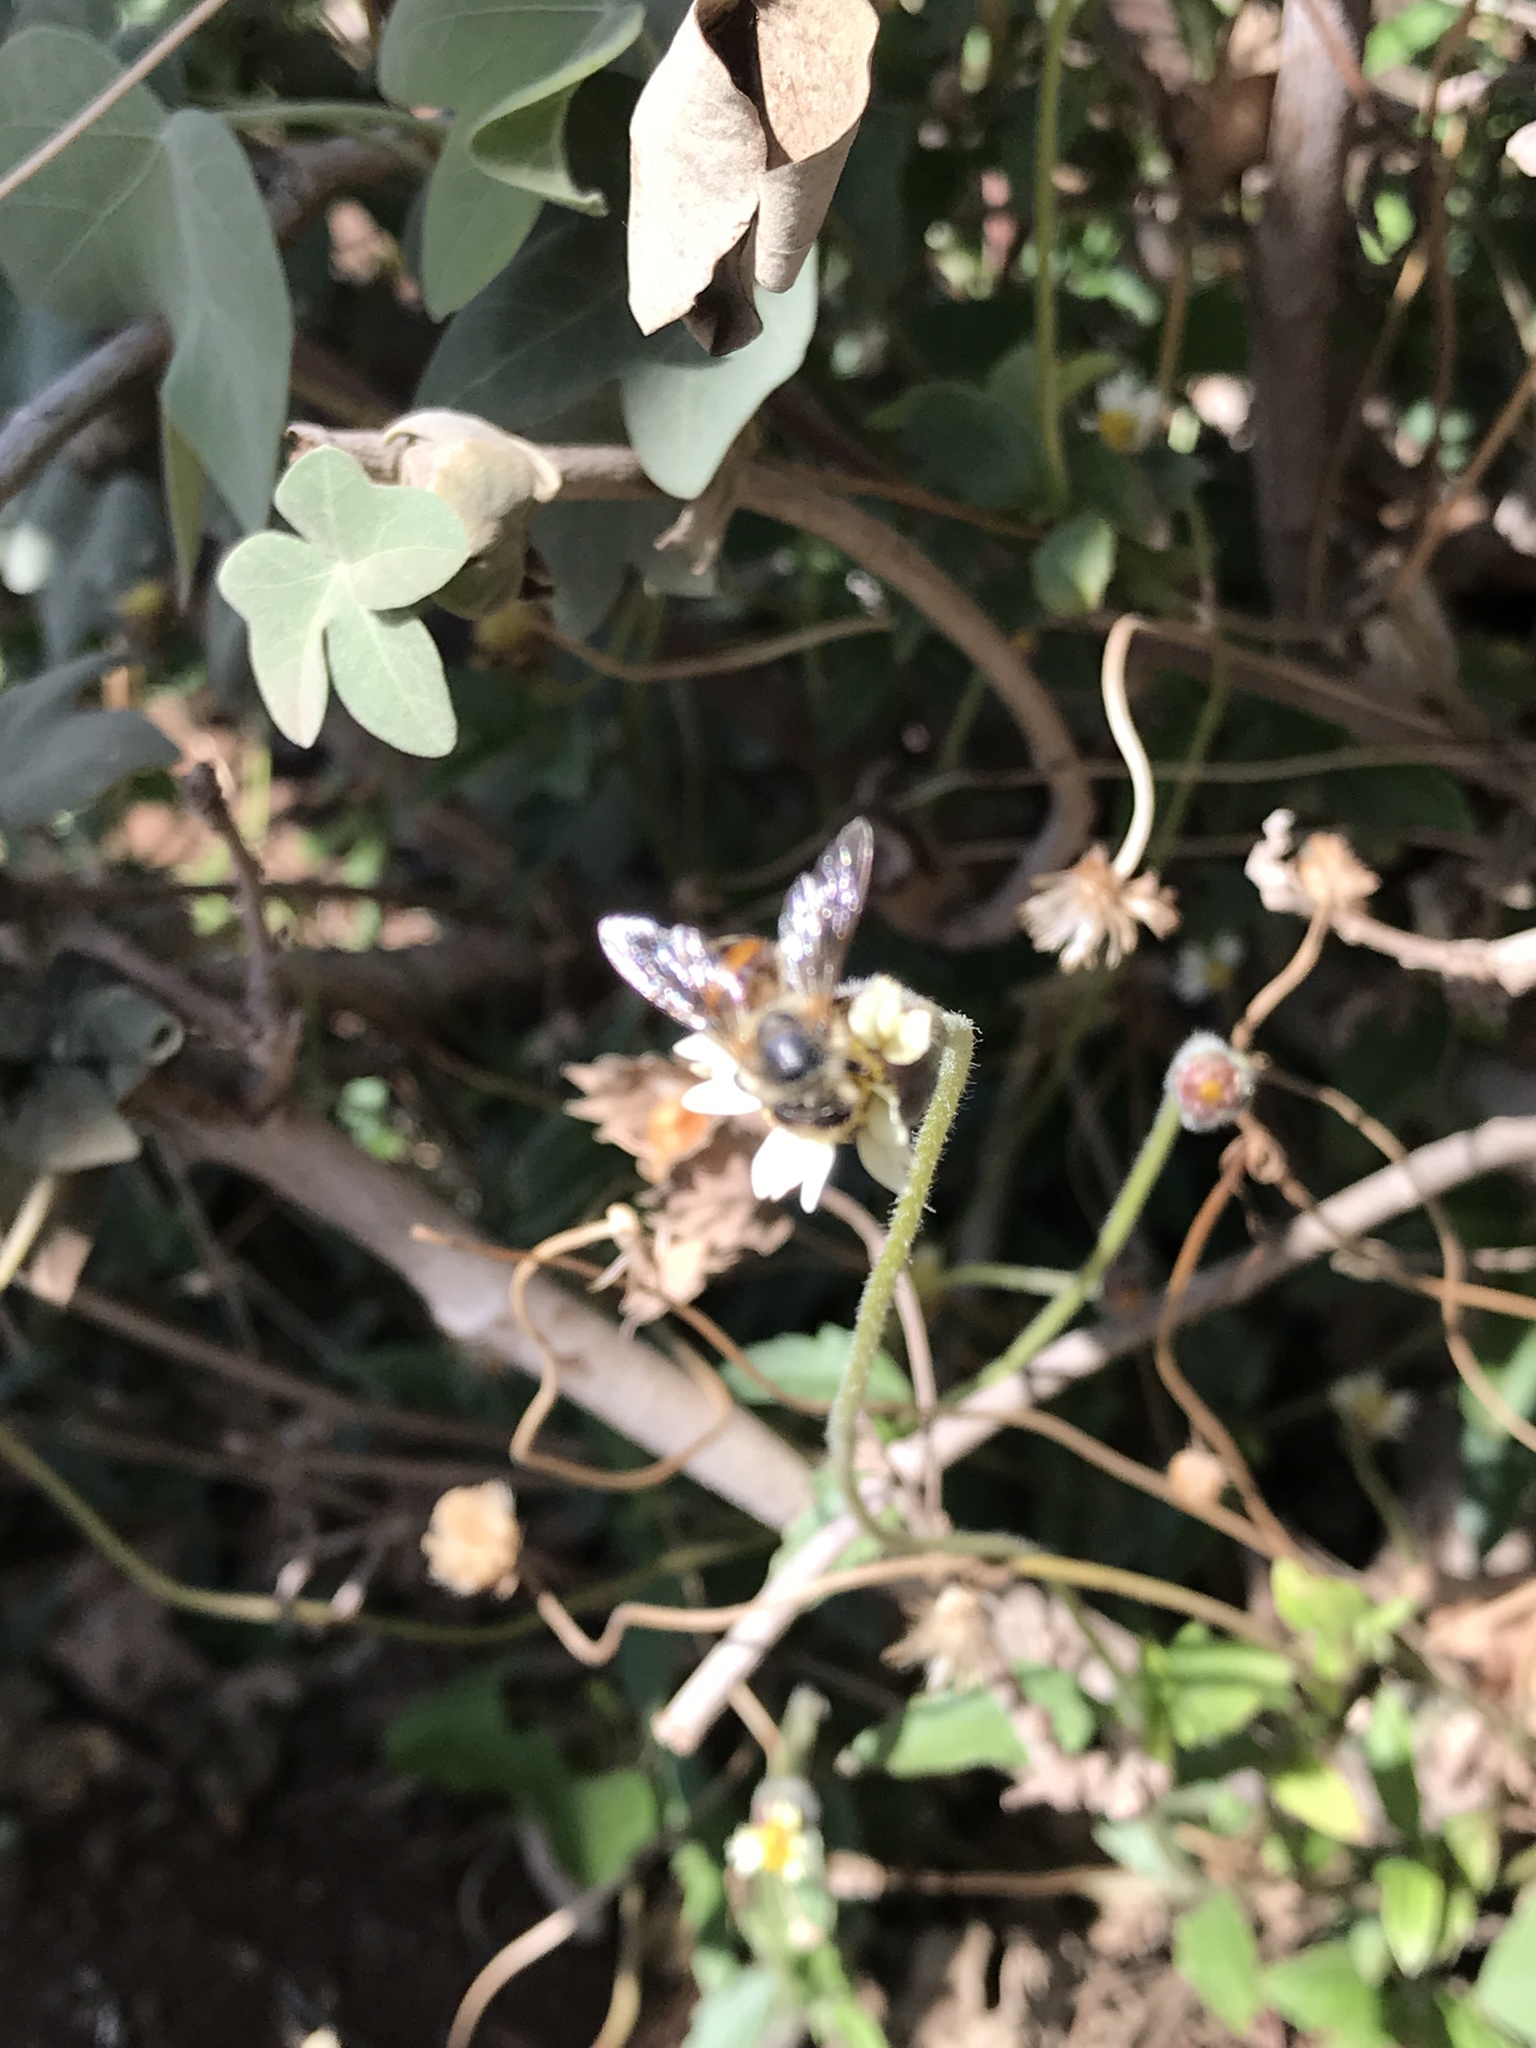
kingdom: Animalia
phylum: Arthropoda
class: Insecta
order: Hymenoptera
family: Apidae
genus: Apis
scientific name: Apis mellifera
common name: Honey bee
